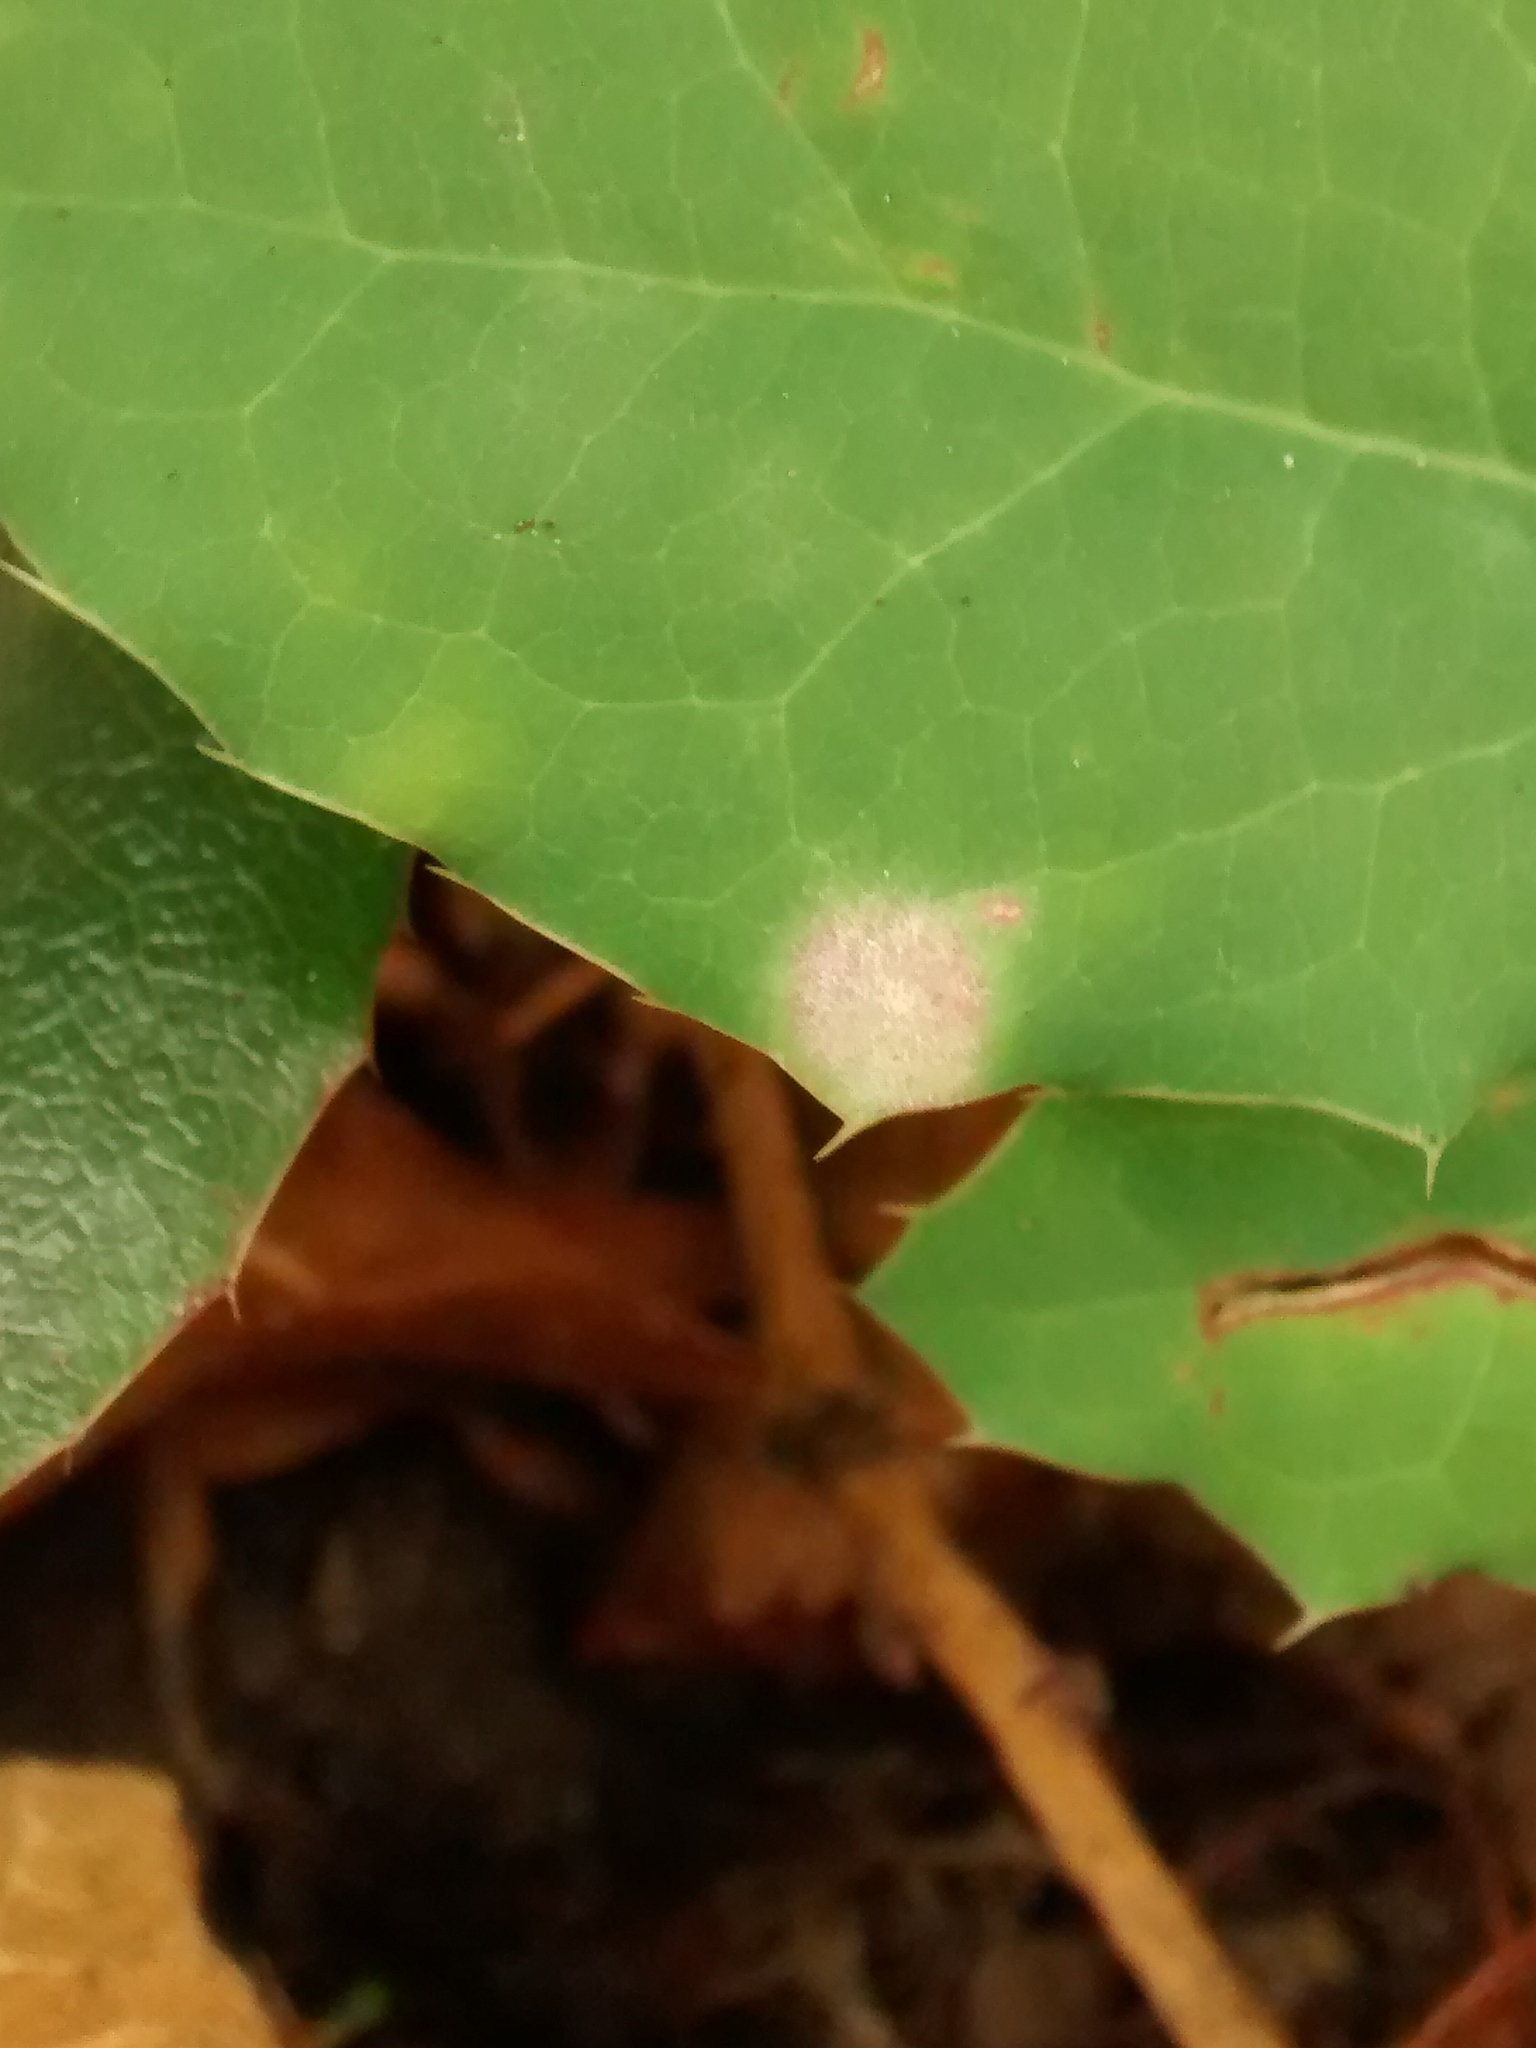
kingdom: Fungi
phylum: Ascomycota
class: Leotiomycetes
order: Helotiales
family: Erysiphaceae
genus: Erysiphe
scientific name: Erysiphe berberidis
